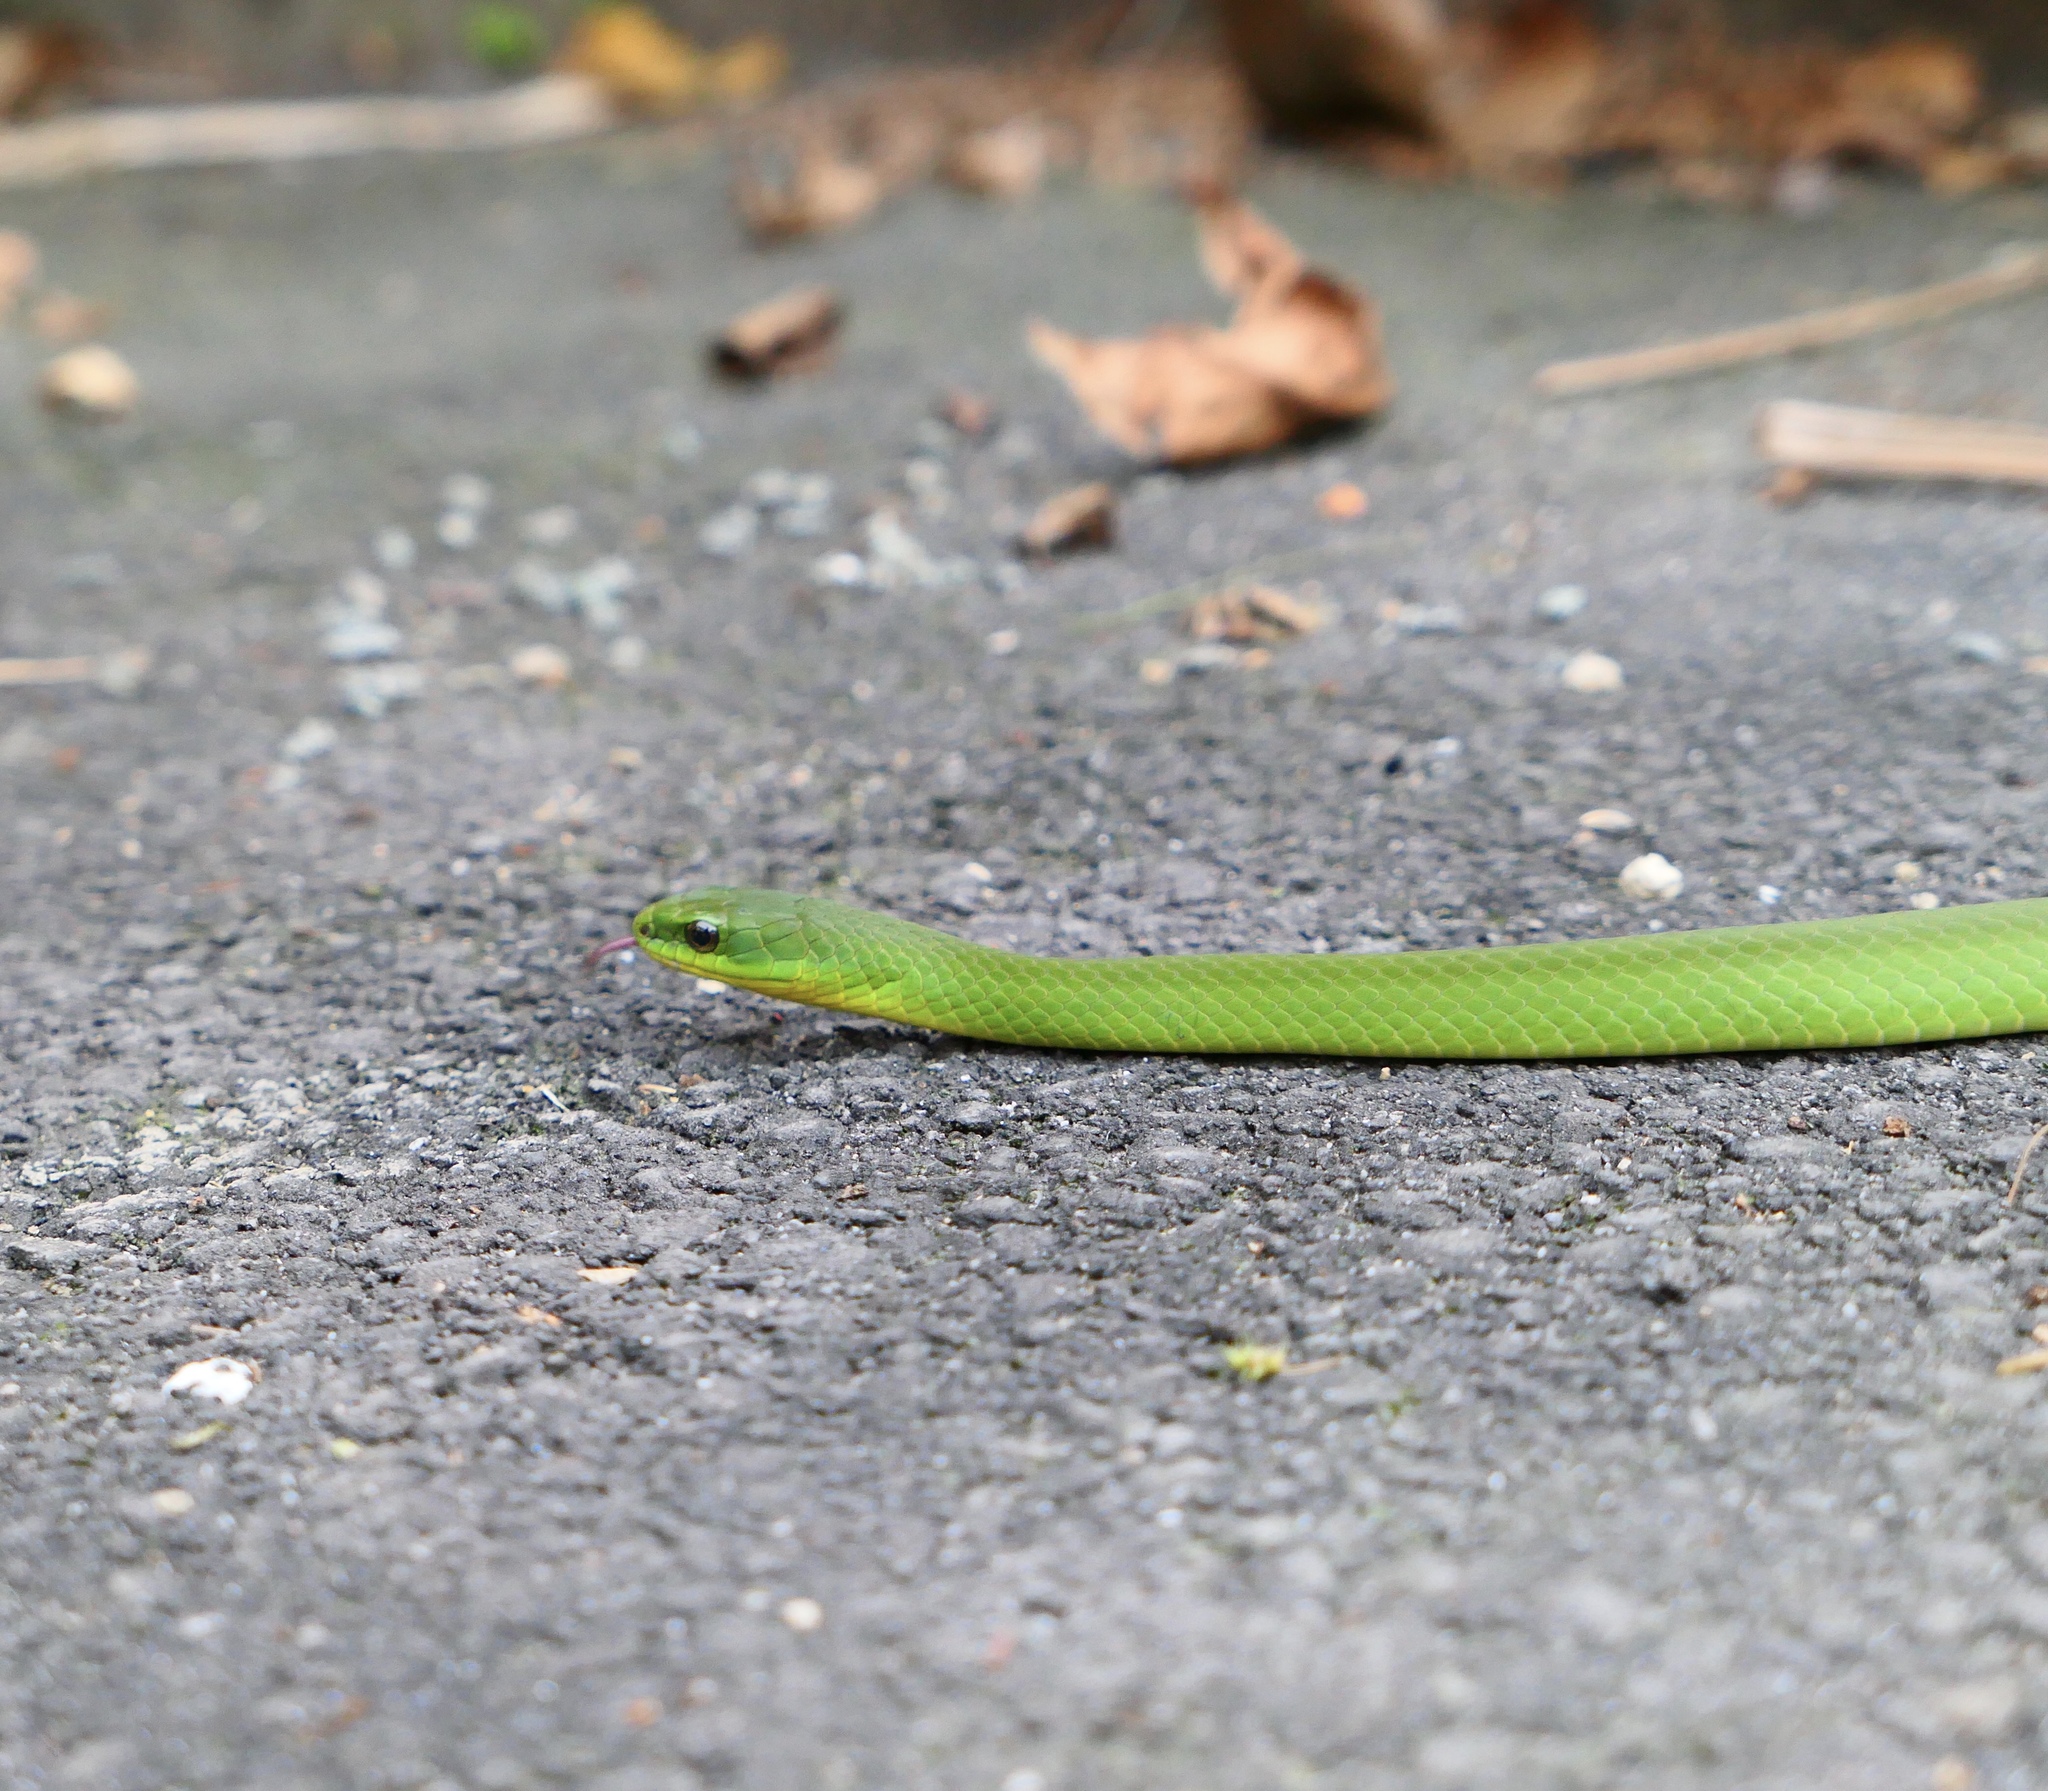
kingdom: Animalia
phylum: Chordata
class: Squamata
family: Colubridae
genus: Ptyas
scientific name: Ptyas major
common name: Chinese green snake
